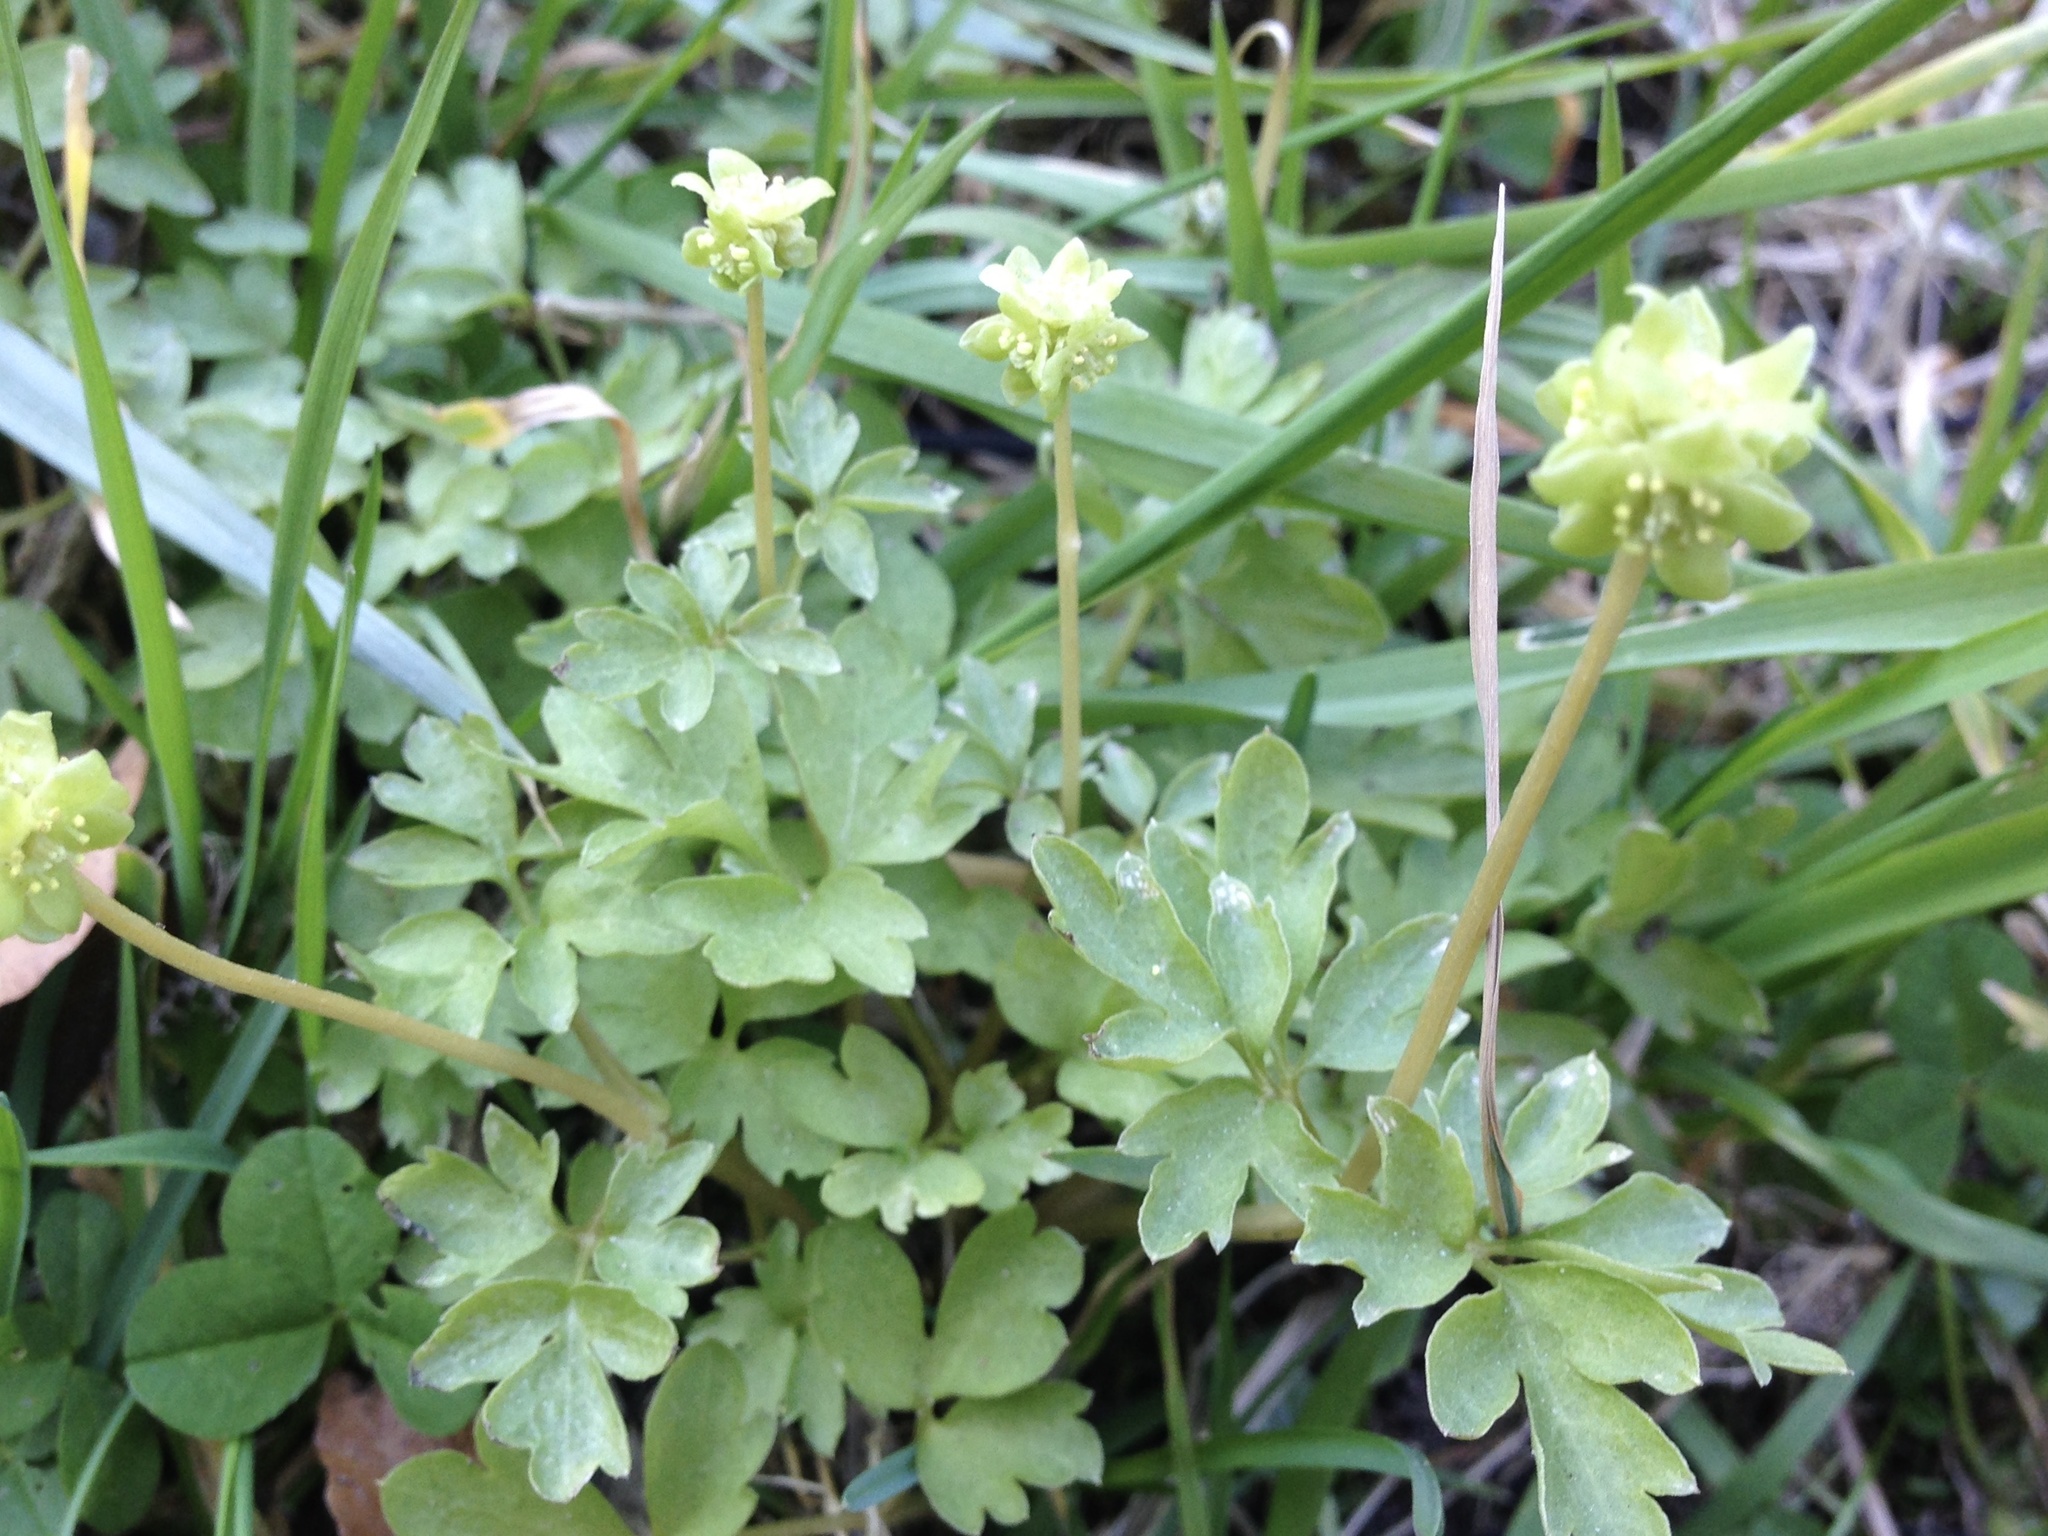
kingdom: Plantae
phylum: Tracheophyta
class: Magnoliopsida
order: Dipsacales
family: Viburnaceae
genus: Adoxa
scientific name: Adoxa moschatellina
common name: Moschatel
